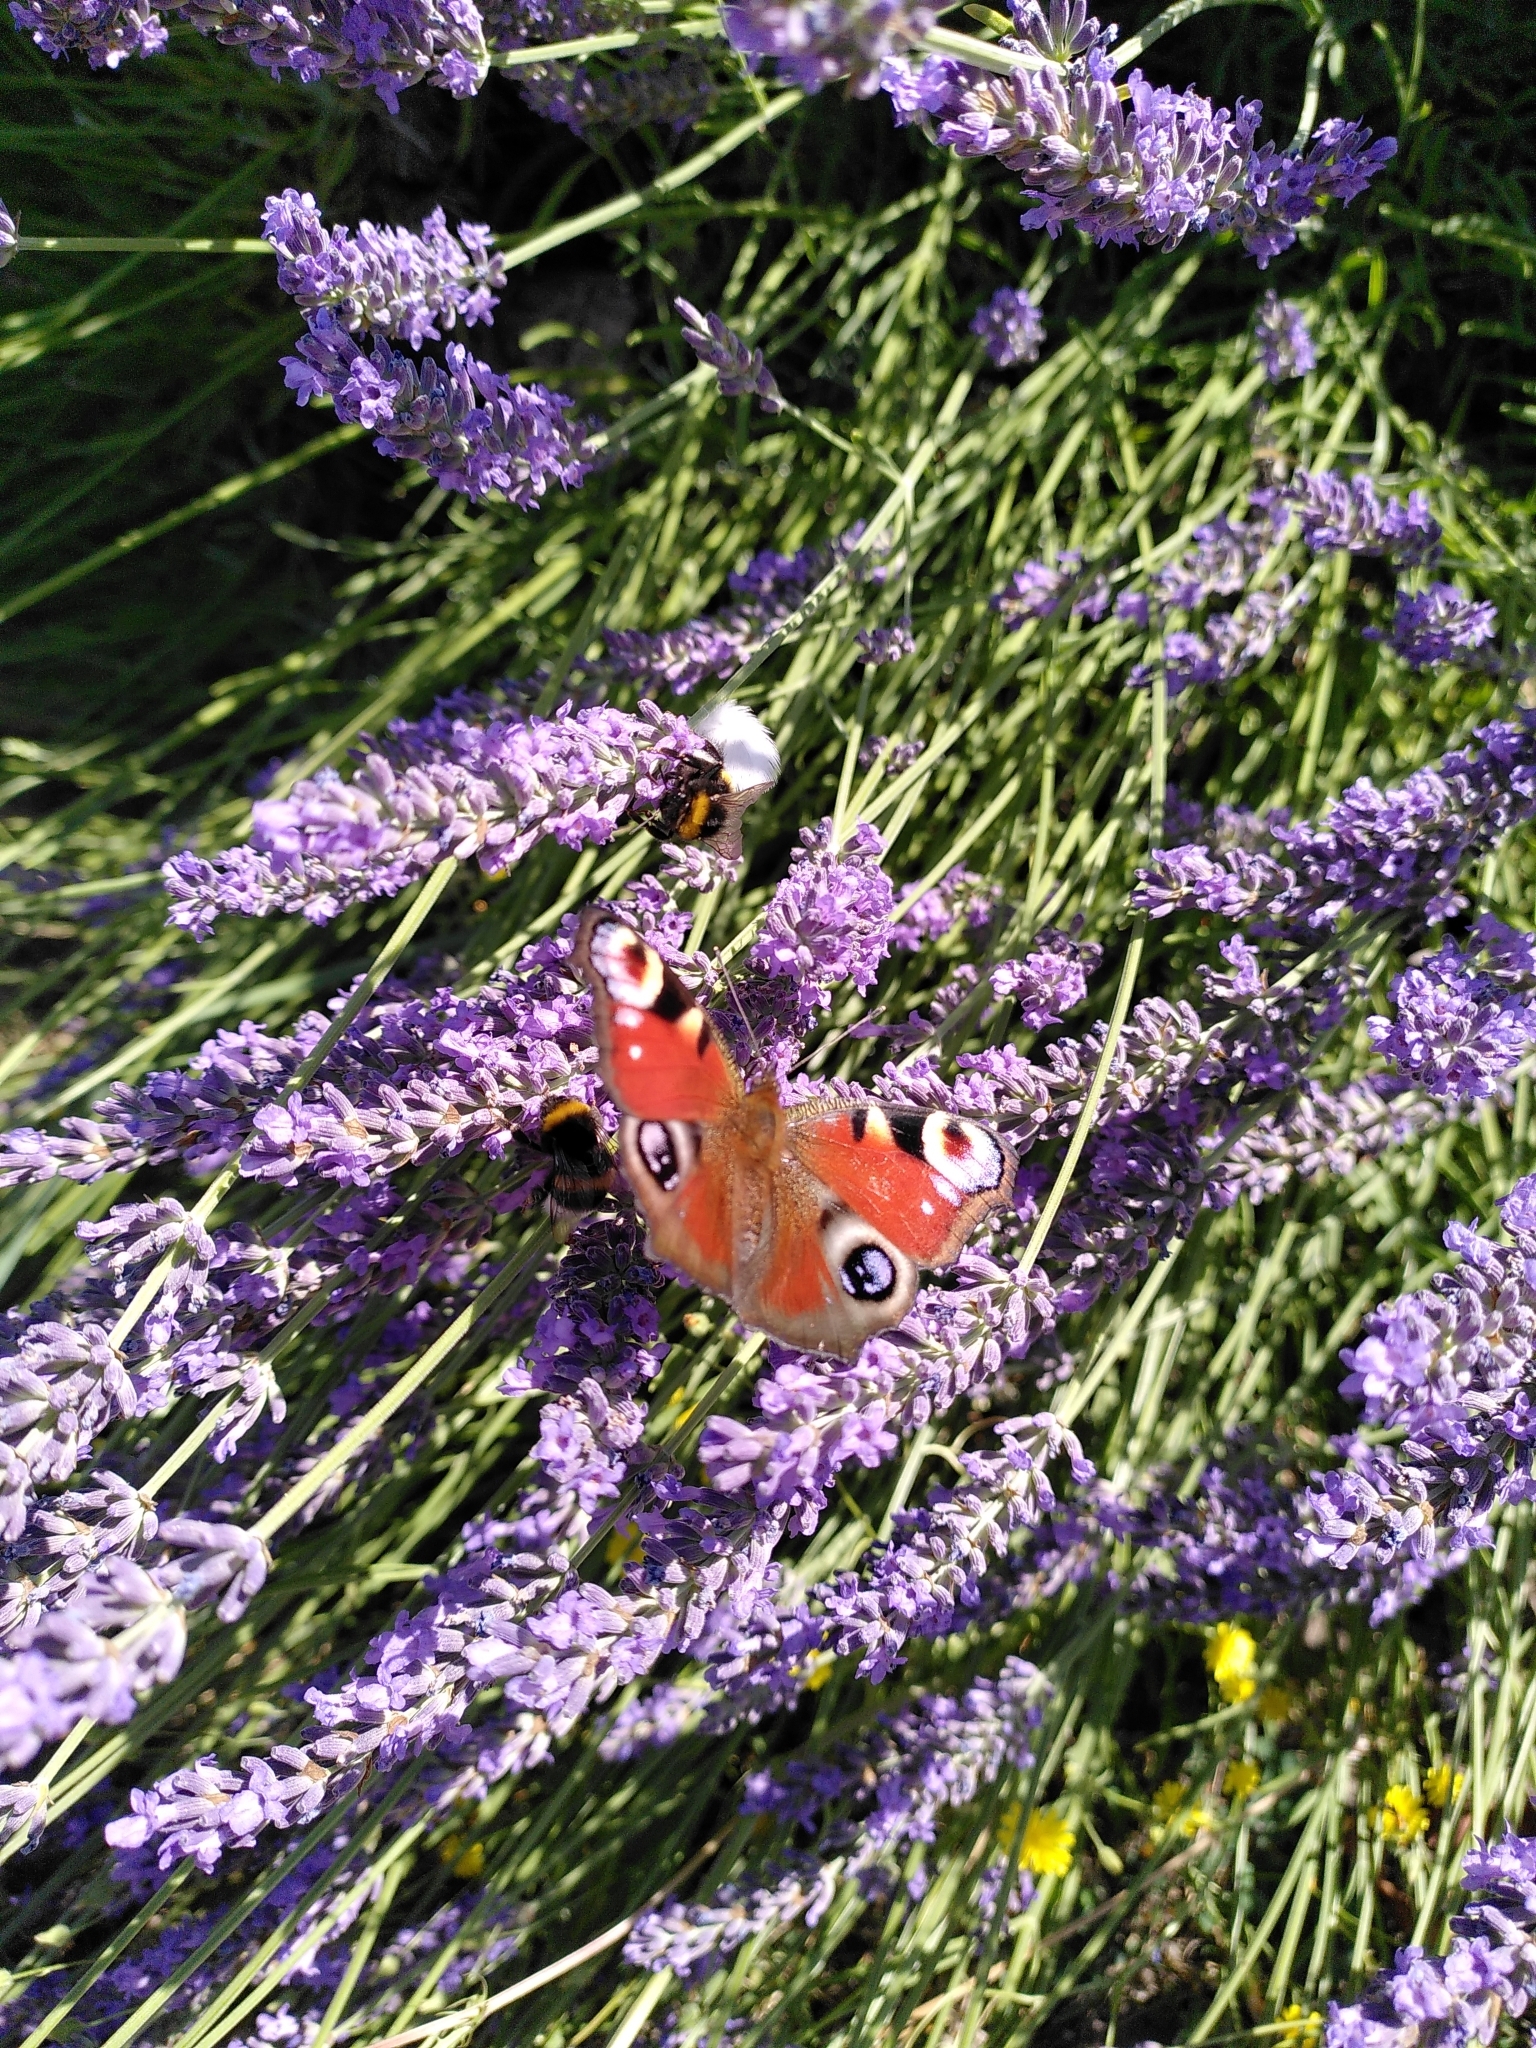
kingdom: Animalia
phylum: Arthropoda
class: Insecta
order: Lepidoptera
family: Nymphalidae
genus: Aglais
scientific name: Aglais io
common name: Peacock
